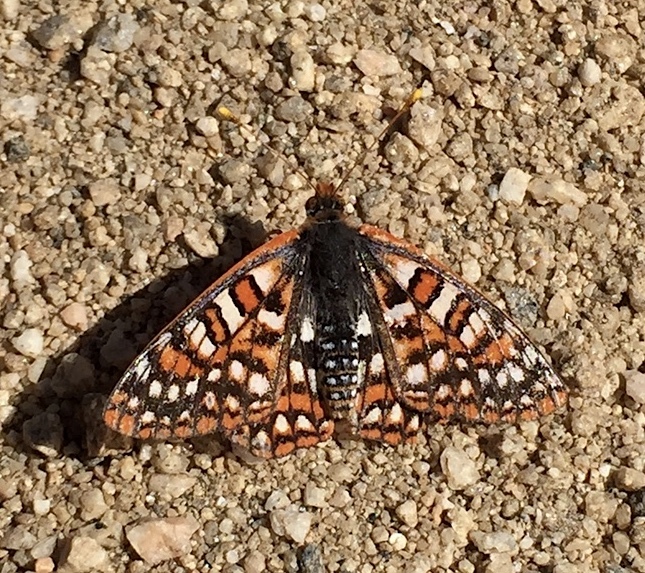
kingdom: Animalia
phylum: Arthropoda
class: Insecta
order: Lepidoptera
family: Nymphalidae
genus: Occidryas
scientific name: Occidryas chalcedona
